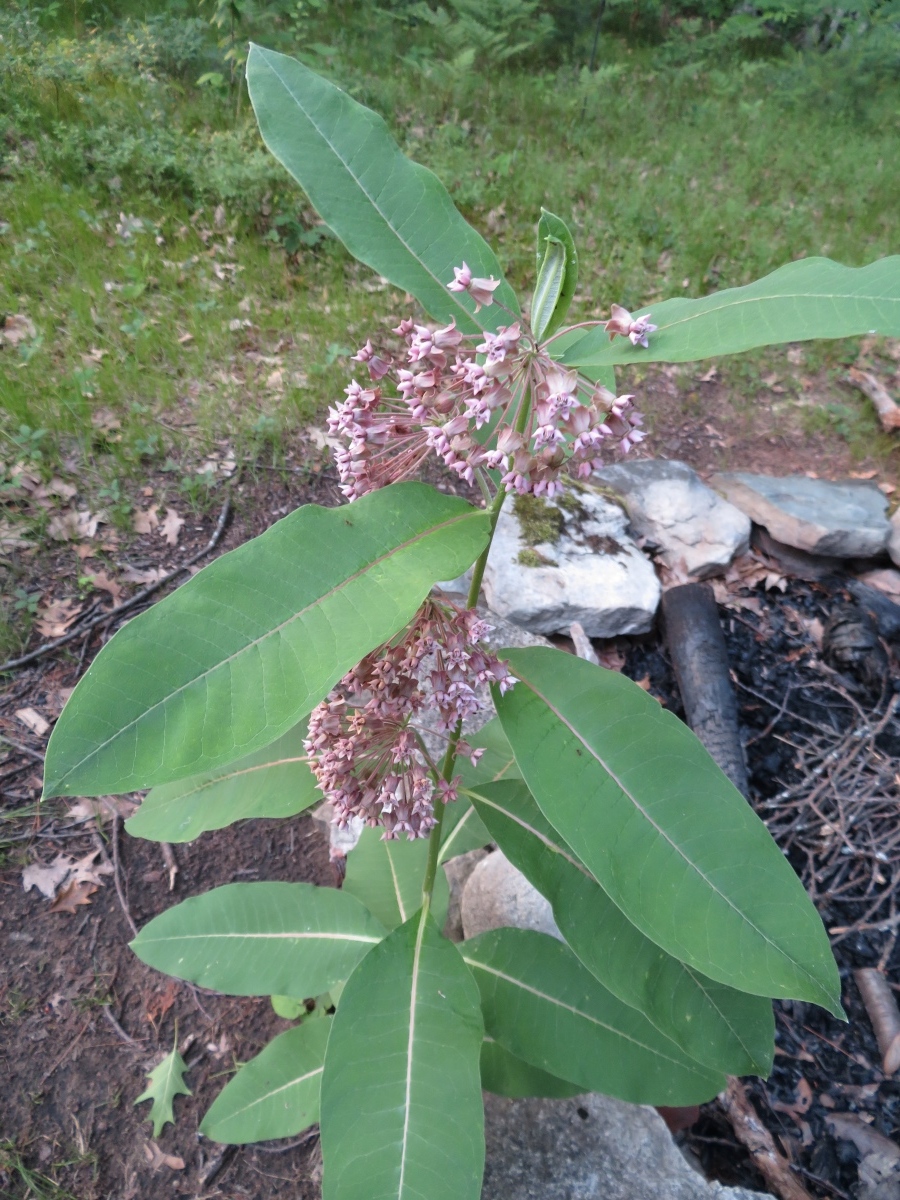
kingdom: Plantae
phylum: Tracheophyta
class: Magnoliopsida
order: Gentianales
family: Apocynaceae
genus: Asclepias
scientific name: Asclepias syriaca
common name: Common milkweed
